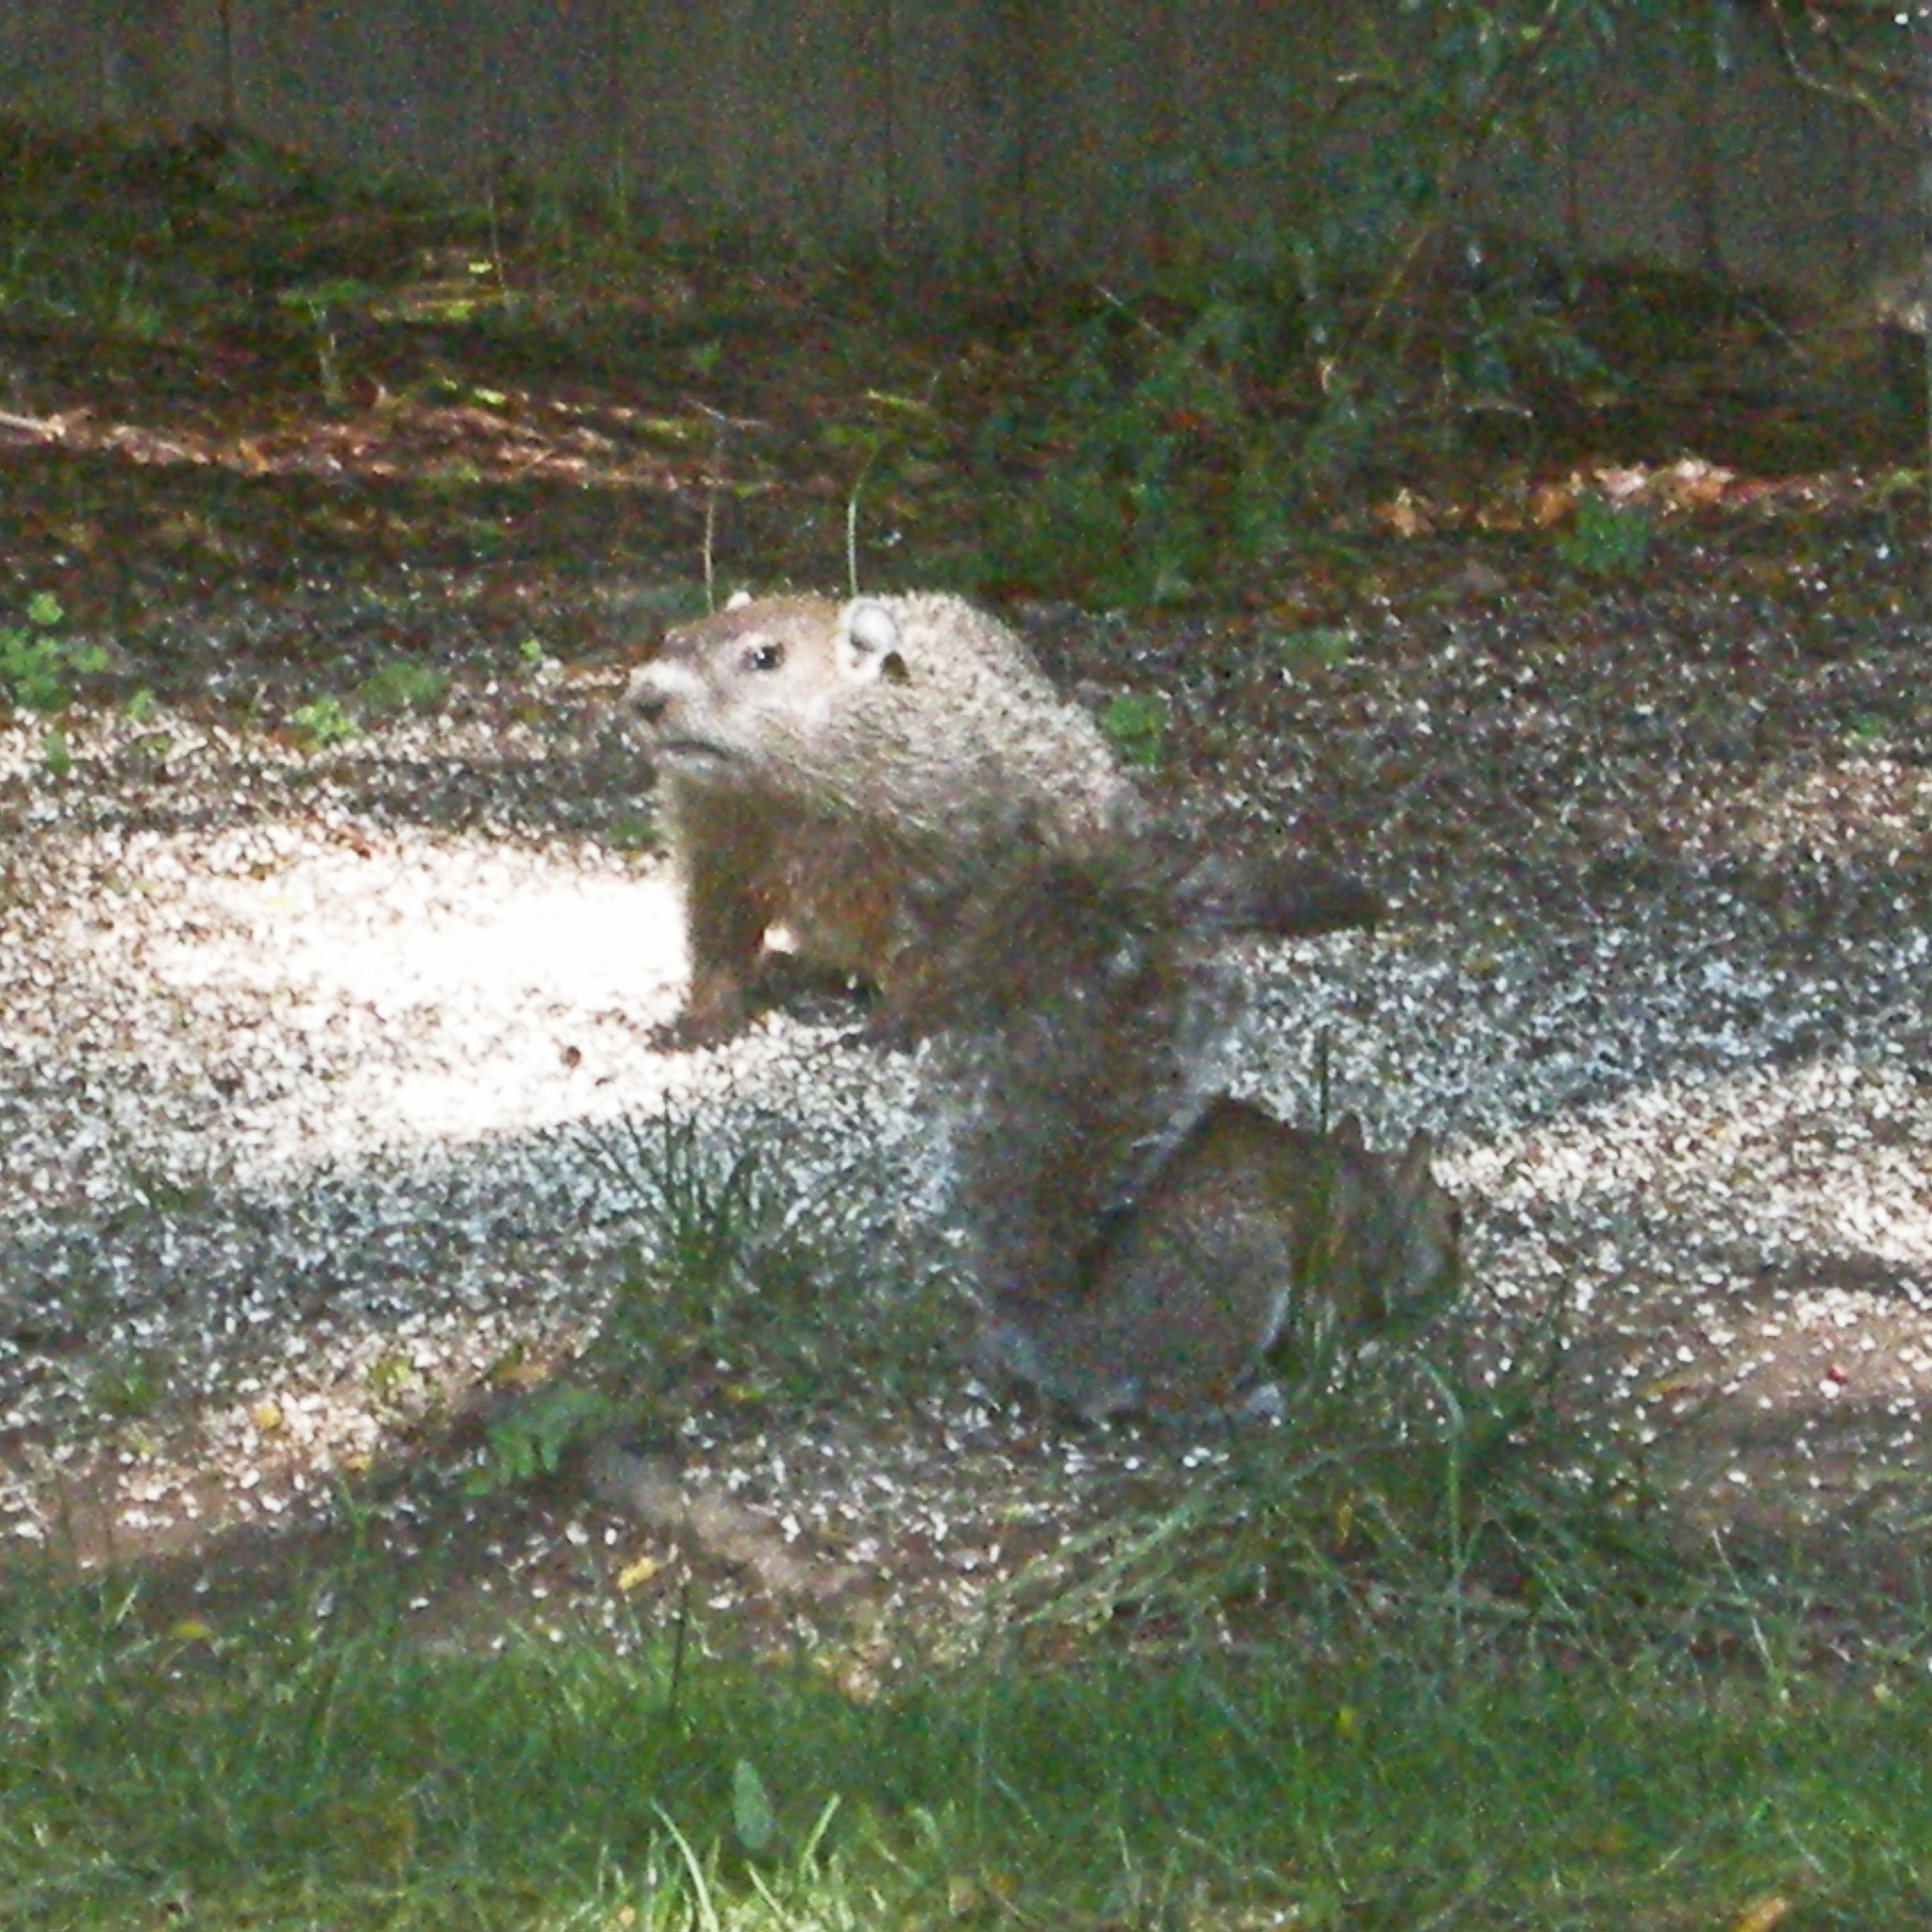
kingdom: Animalia
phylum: Chordata
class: Mammalia
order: Rodentia
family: Sciuridae
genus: Sciurus
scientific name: Sciurus carolinensis
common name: Eastern gray squirrel
